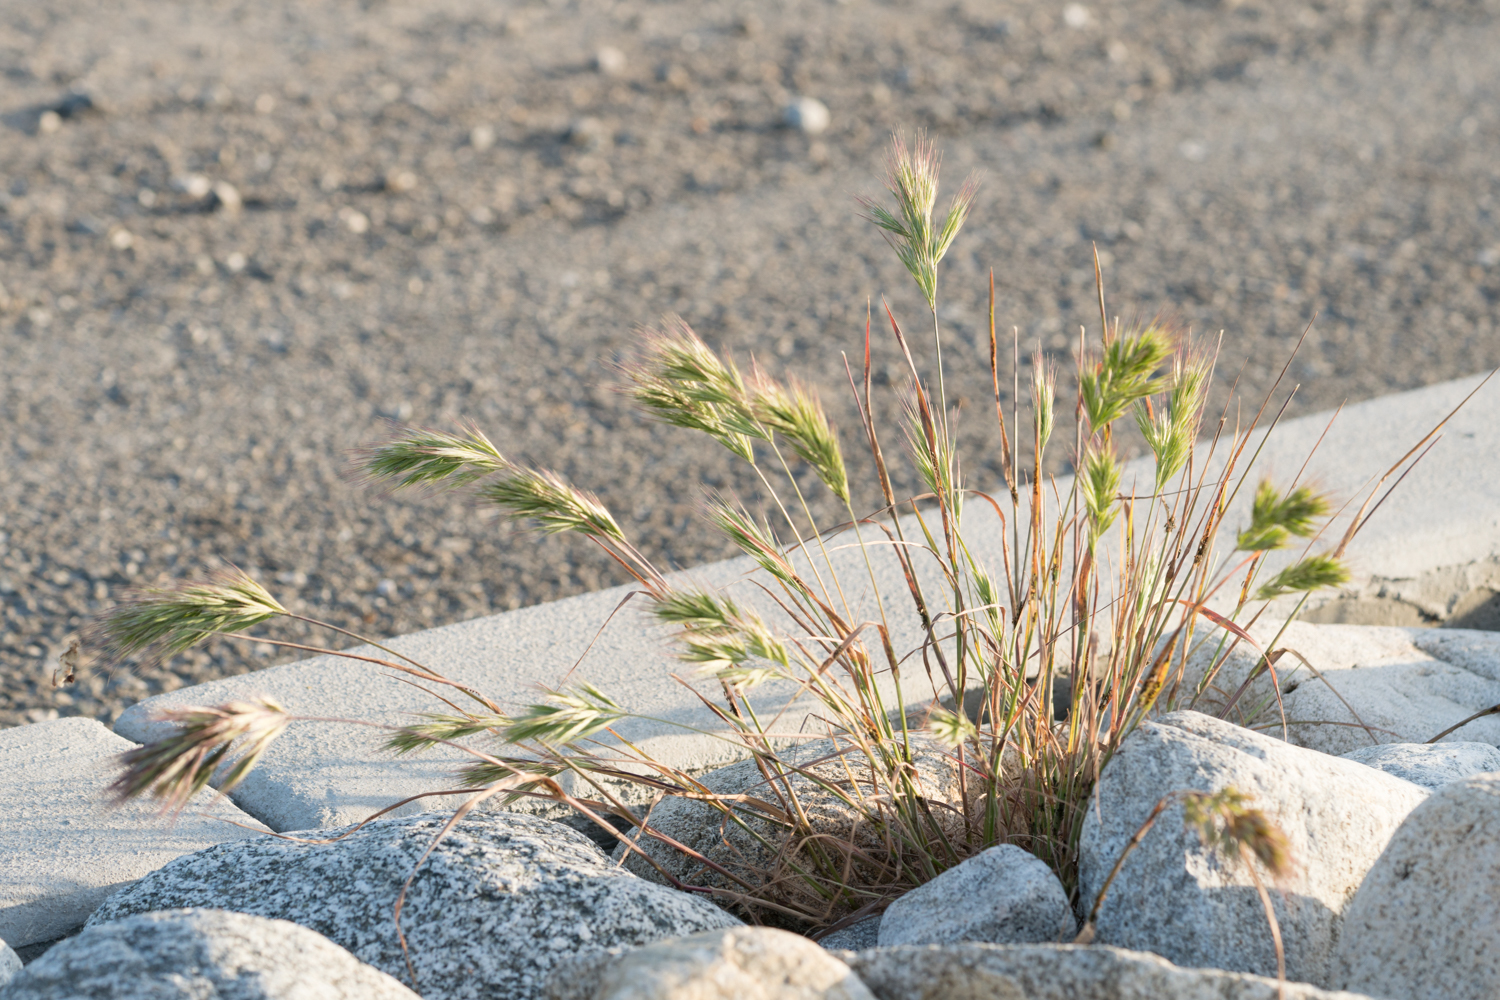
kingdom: Plantae
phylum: Tracheophyta
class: Liliopsida
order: Poales
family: Poaceae
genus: Bromus
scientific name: Bromus rubens
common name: Red brome
